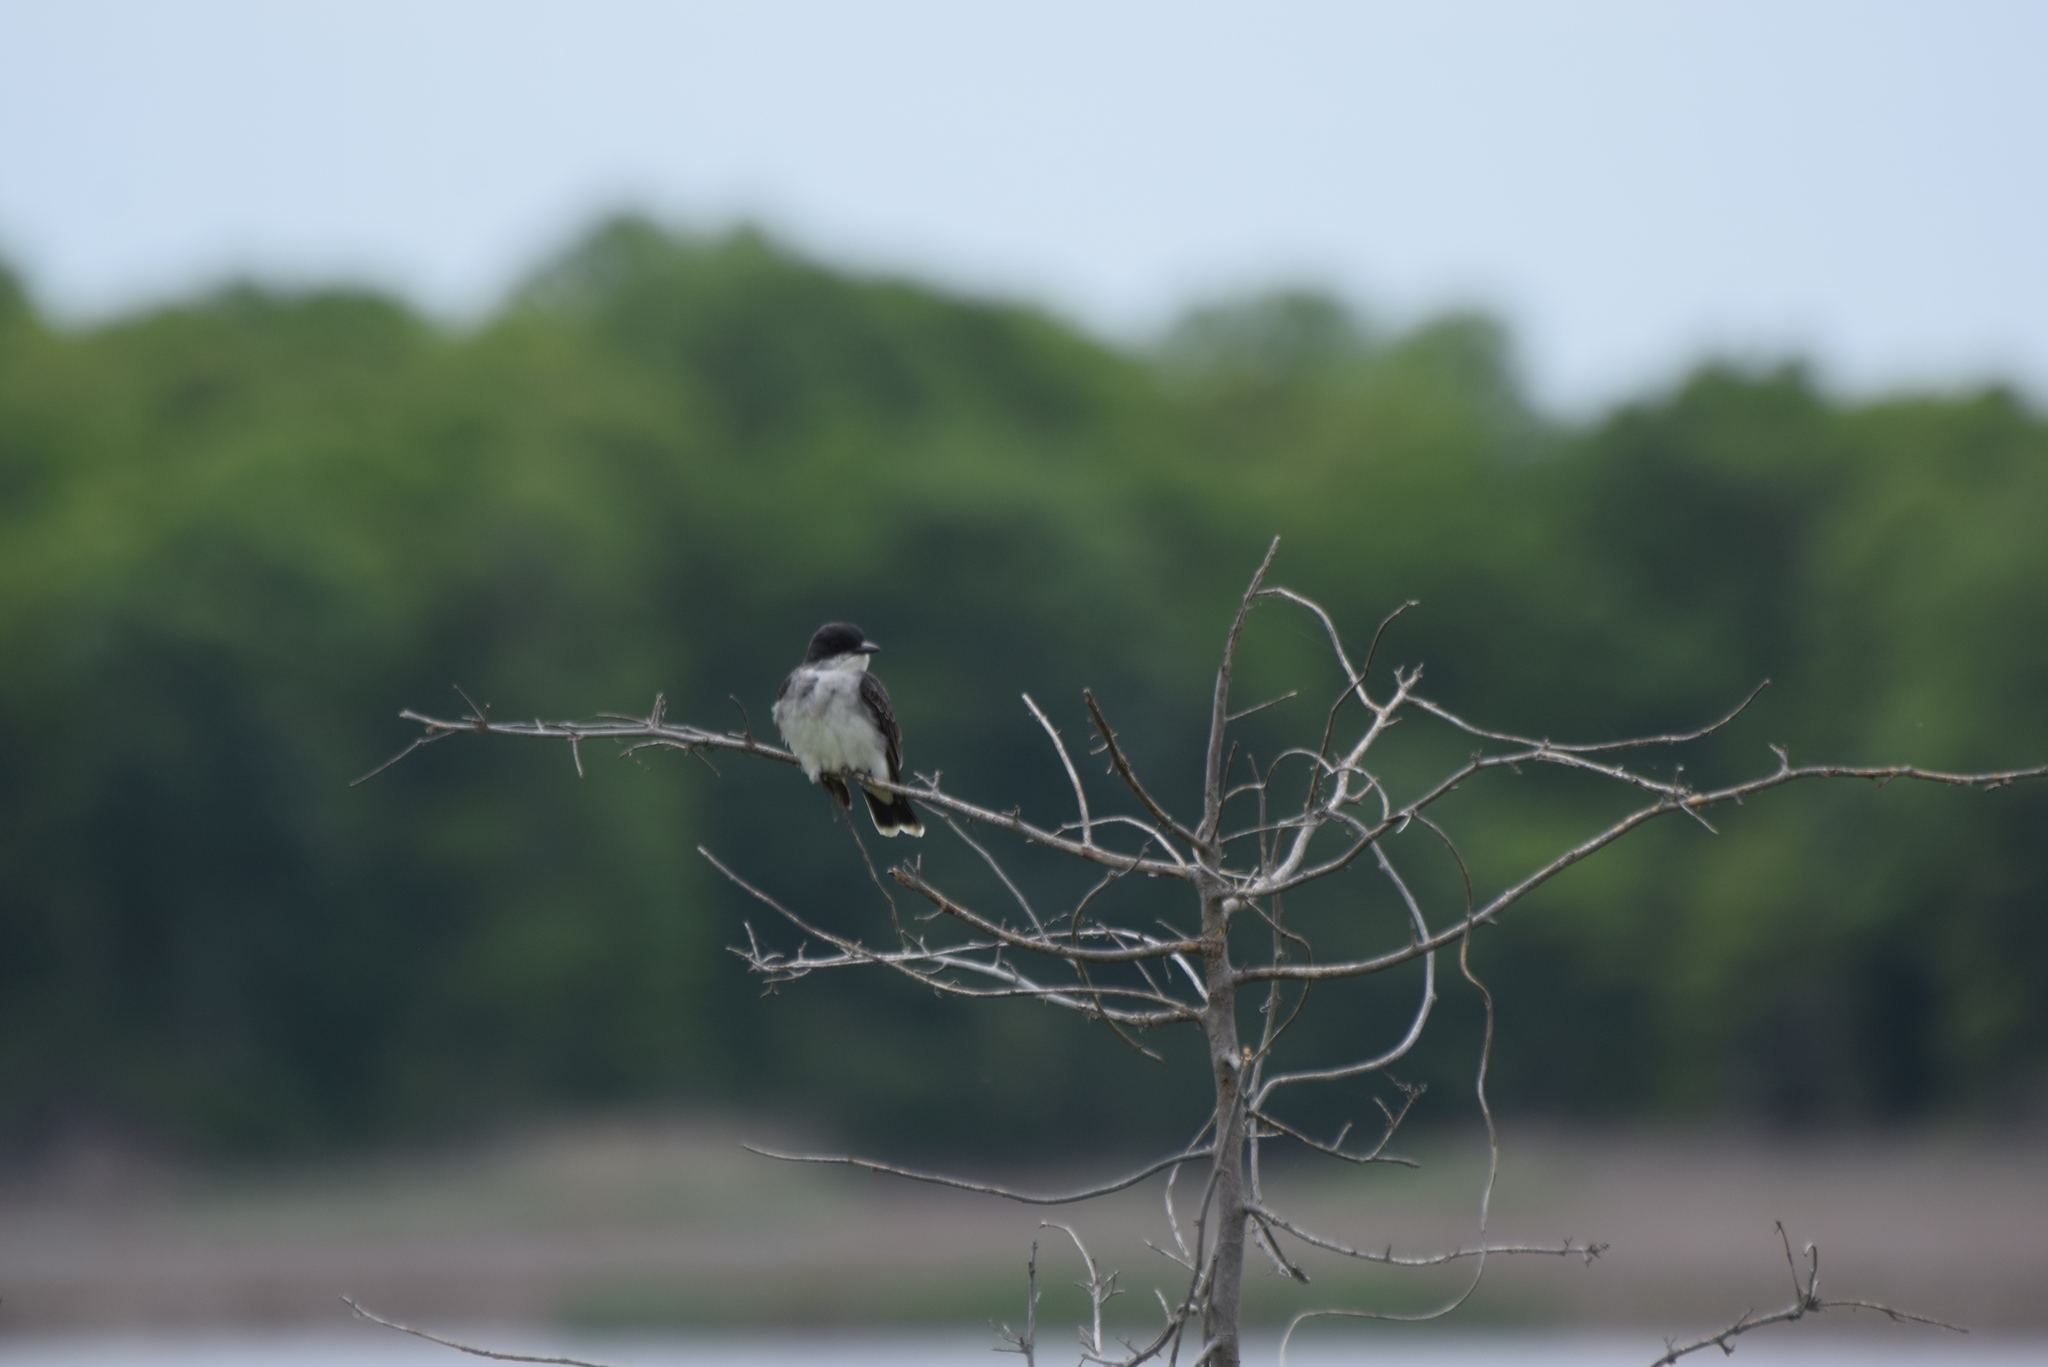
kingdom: Animalia
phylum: Chordata
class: Aves
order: Passeriformes
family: Tyrannidae
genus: Tyrannus
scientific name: Tyrannus tyrannus
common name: Eastern kingbird
